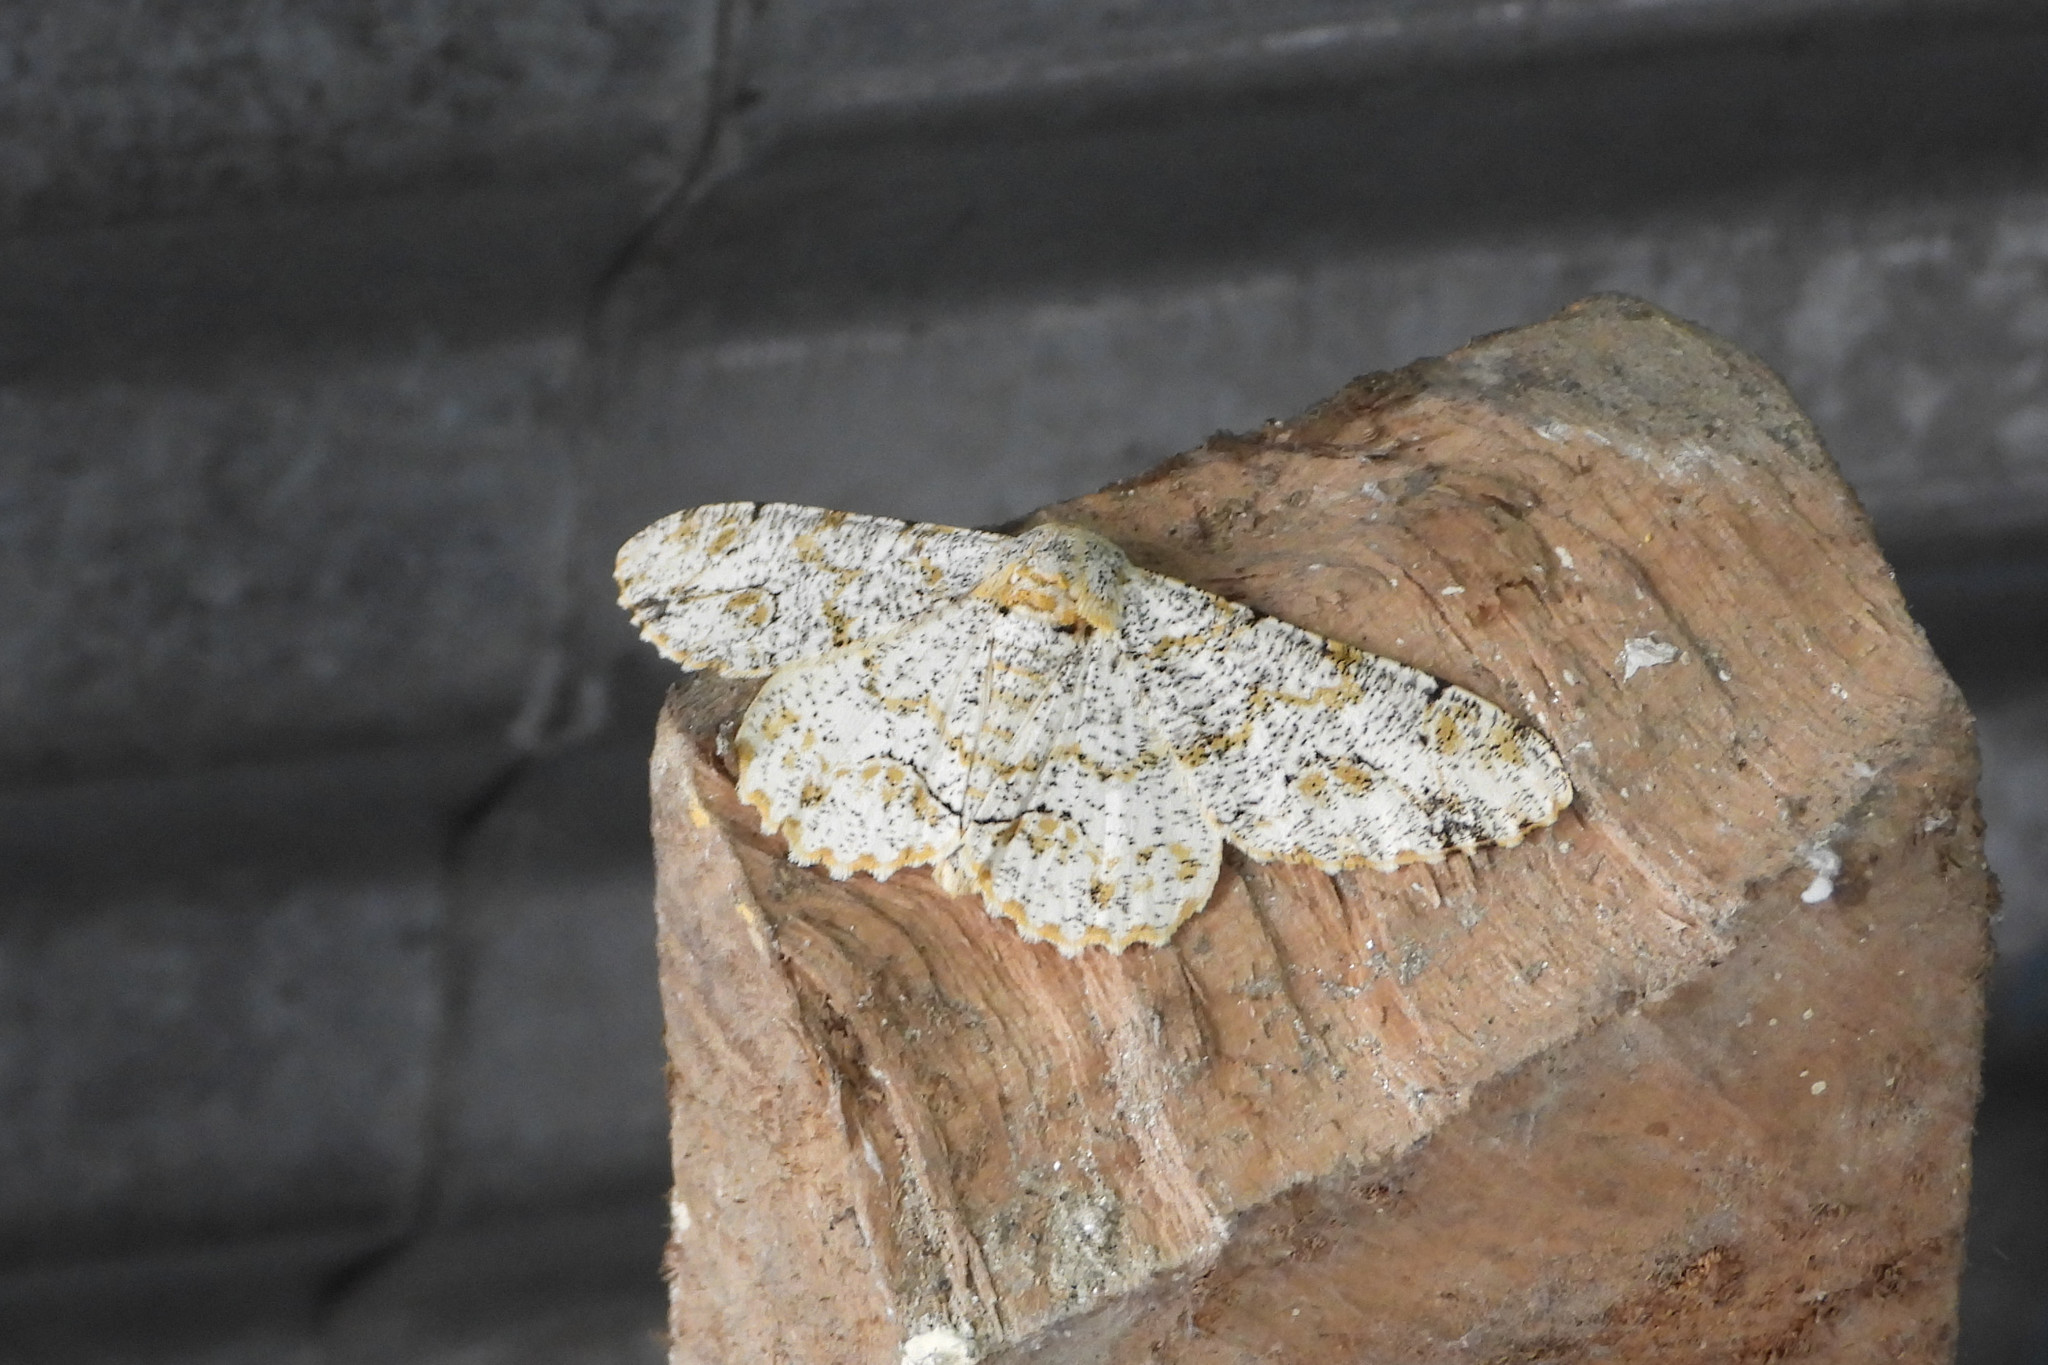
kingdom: Animalia
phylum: Arthropoda
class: Insecta
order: Lepidoptera
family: Geometridae
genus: Biston
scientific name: Biston suppressaria
